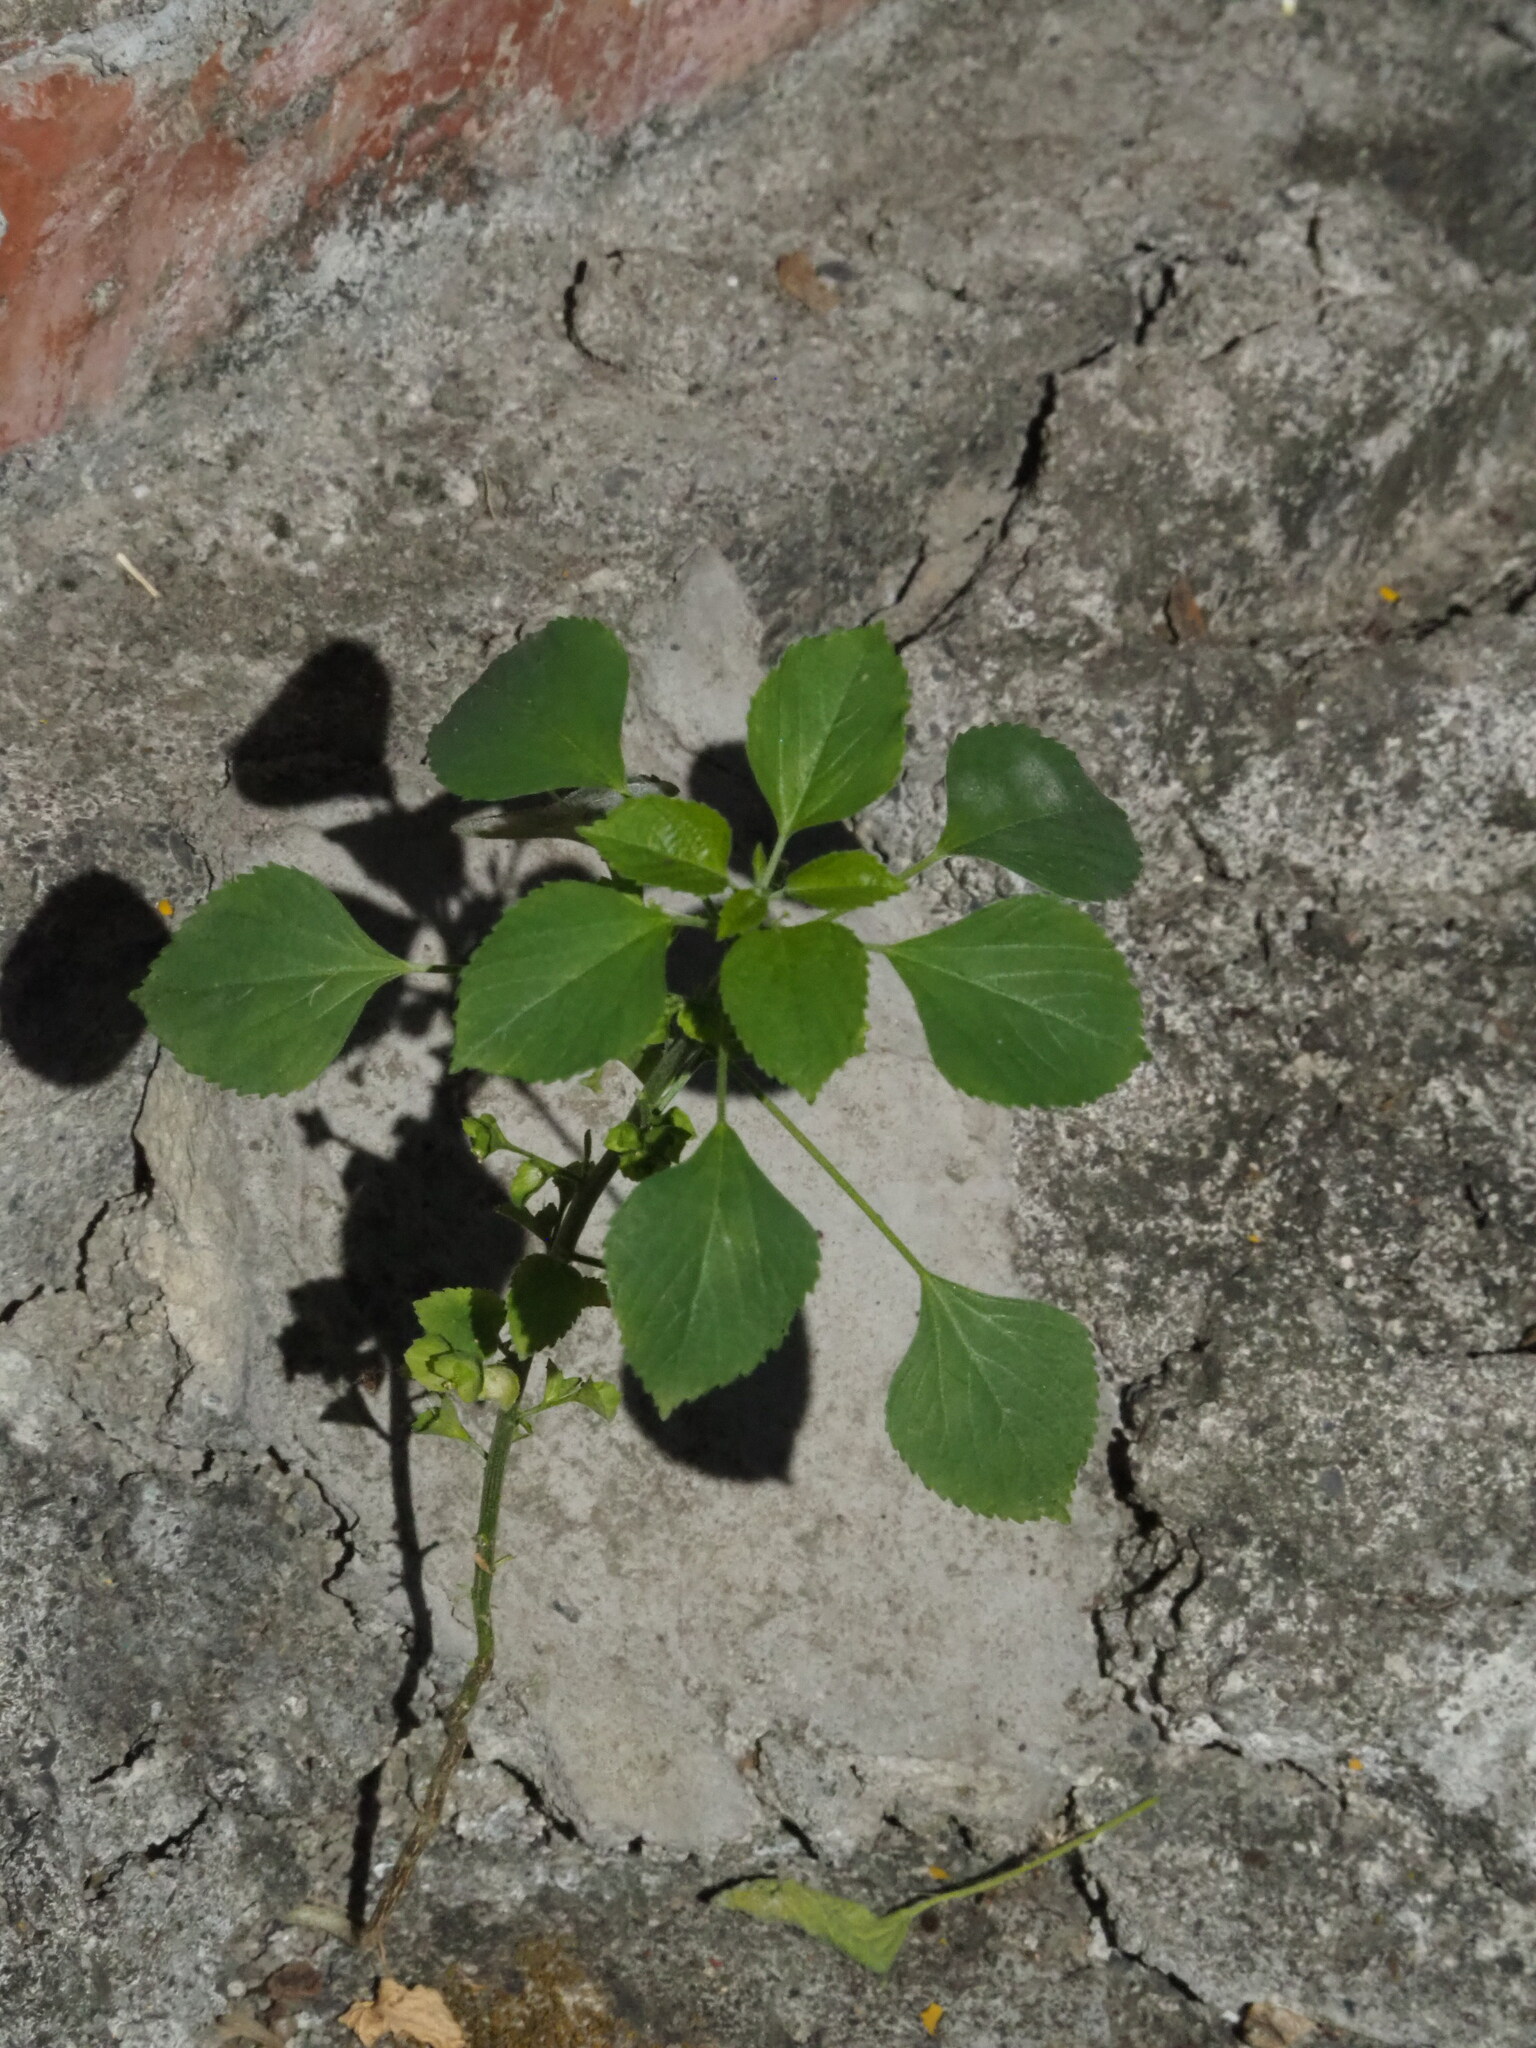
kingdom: Plantae
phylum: Tracheophyta
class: Magnoliopsida
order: Malpighiales
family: Euphorbiaceae
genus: Acalypha
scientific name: Acalypha indica
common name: Indian acalypha
